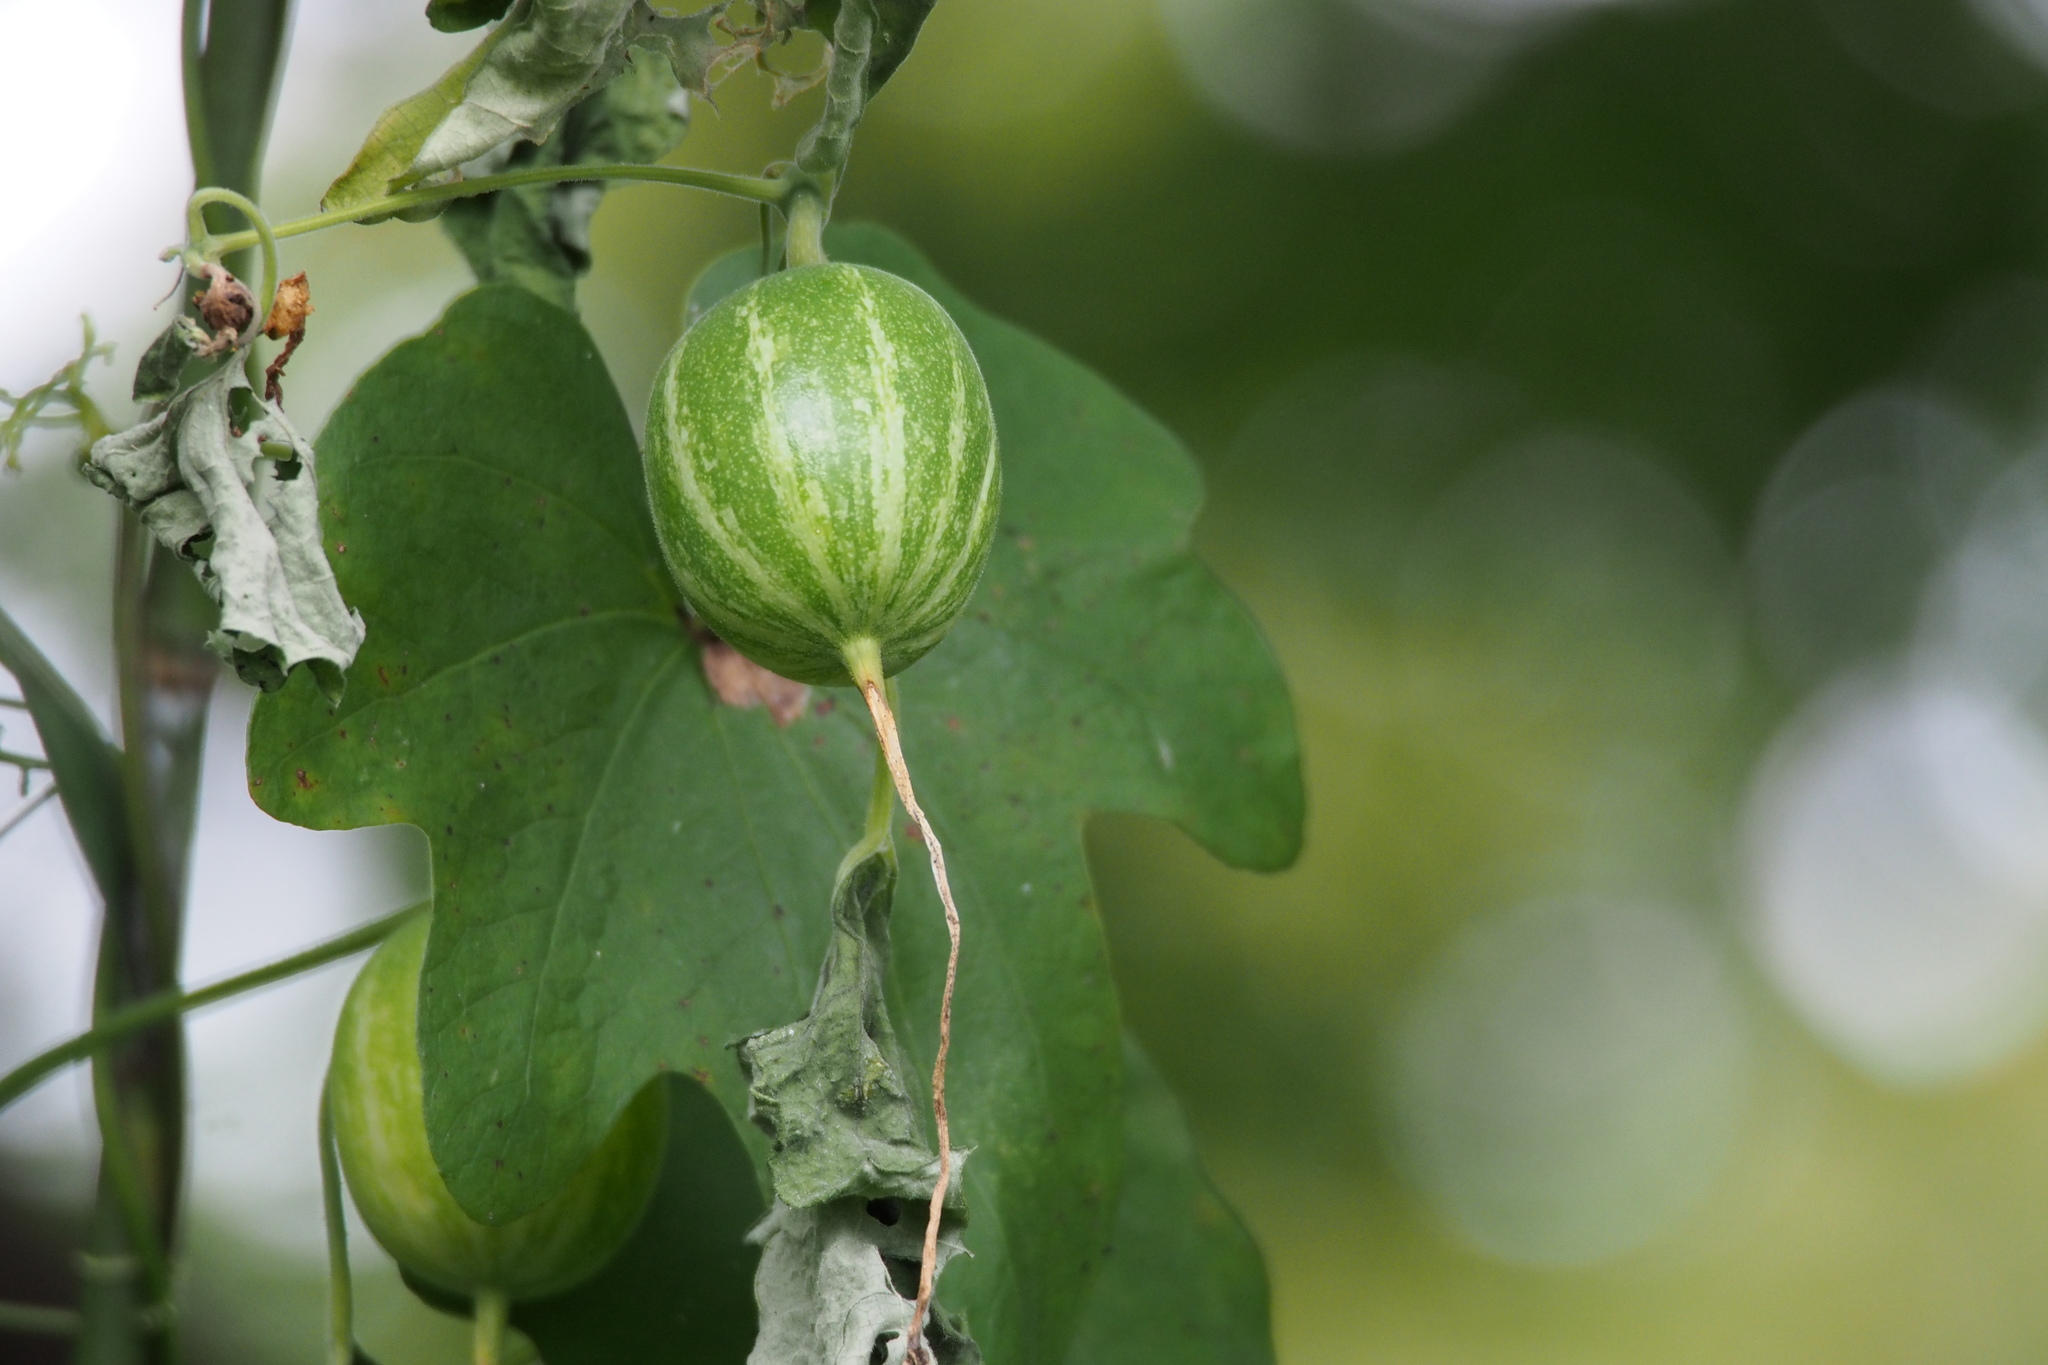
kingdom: Plantae
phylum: Tracheophyta
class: Magnoliopsida
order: Cucurbitales
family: Cucurbitaceae
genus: Trichosanthes
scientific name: Trichosanthes cucumeroides
